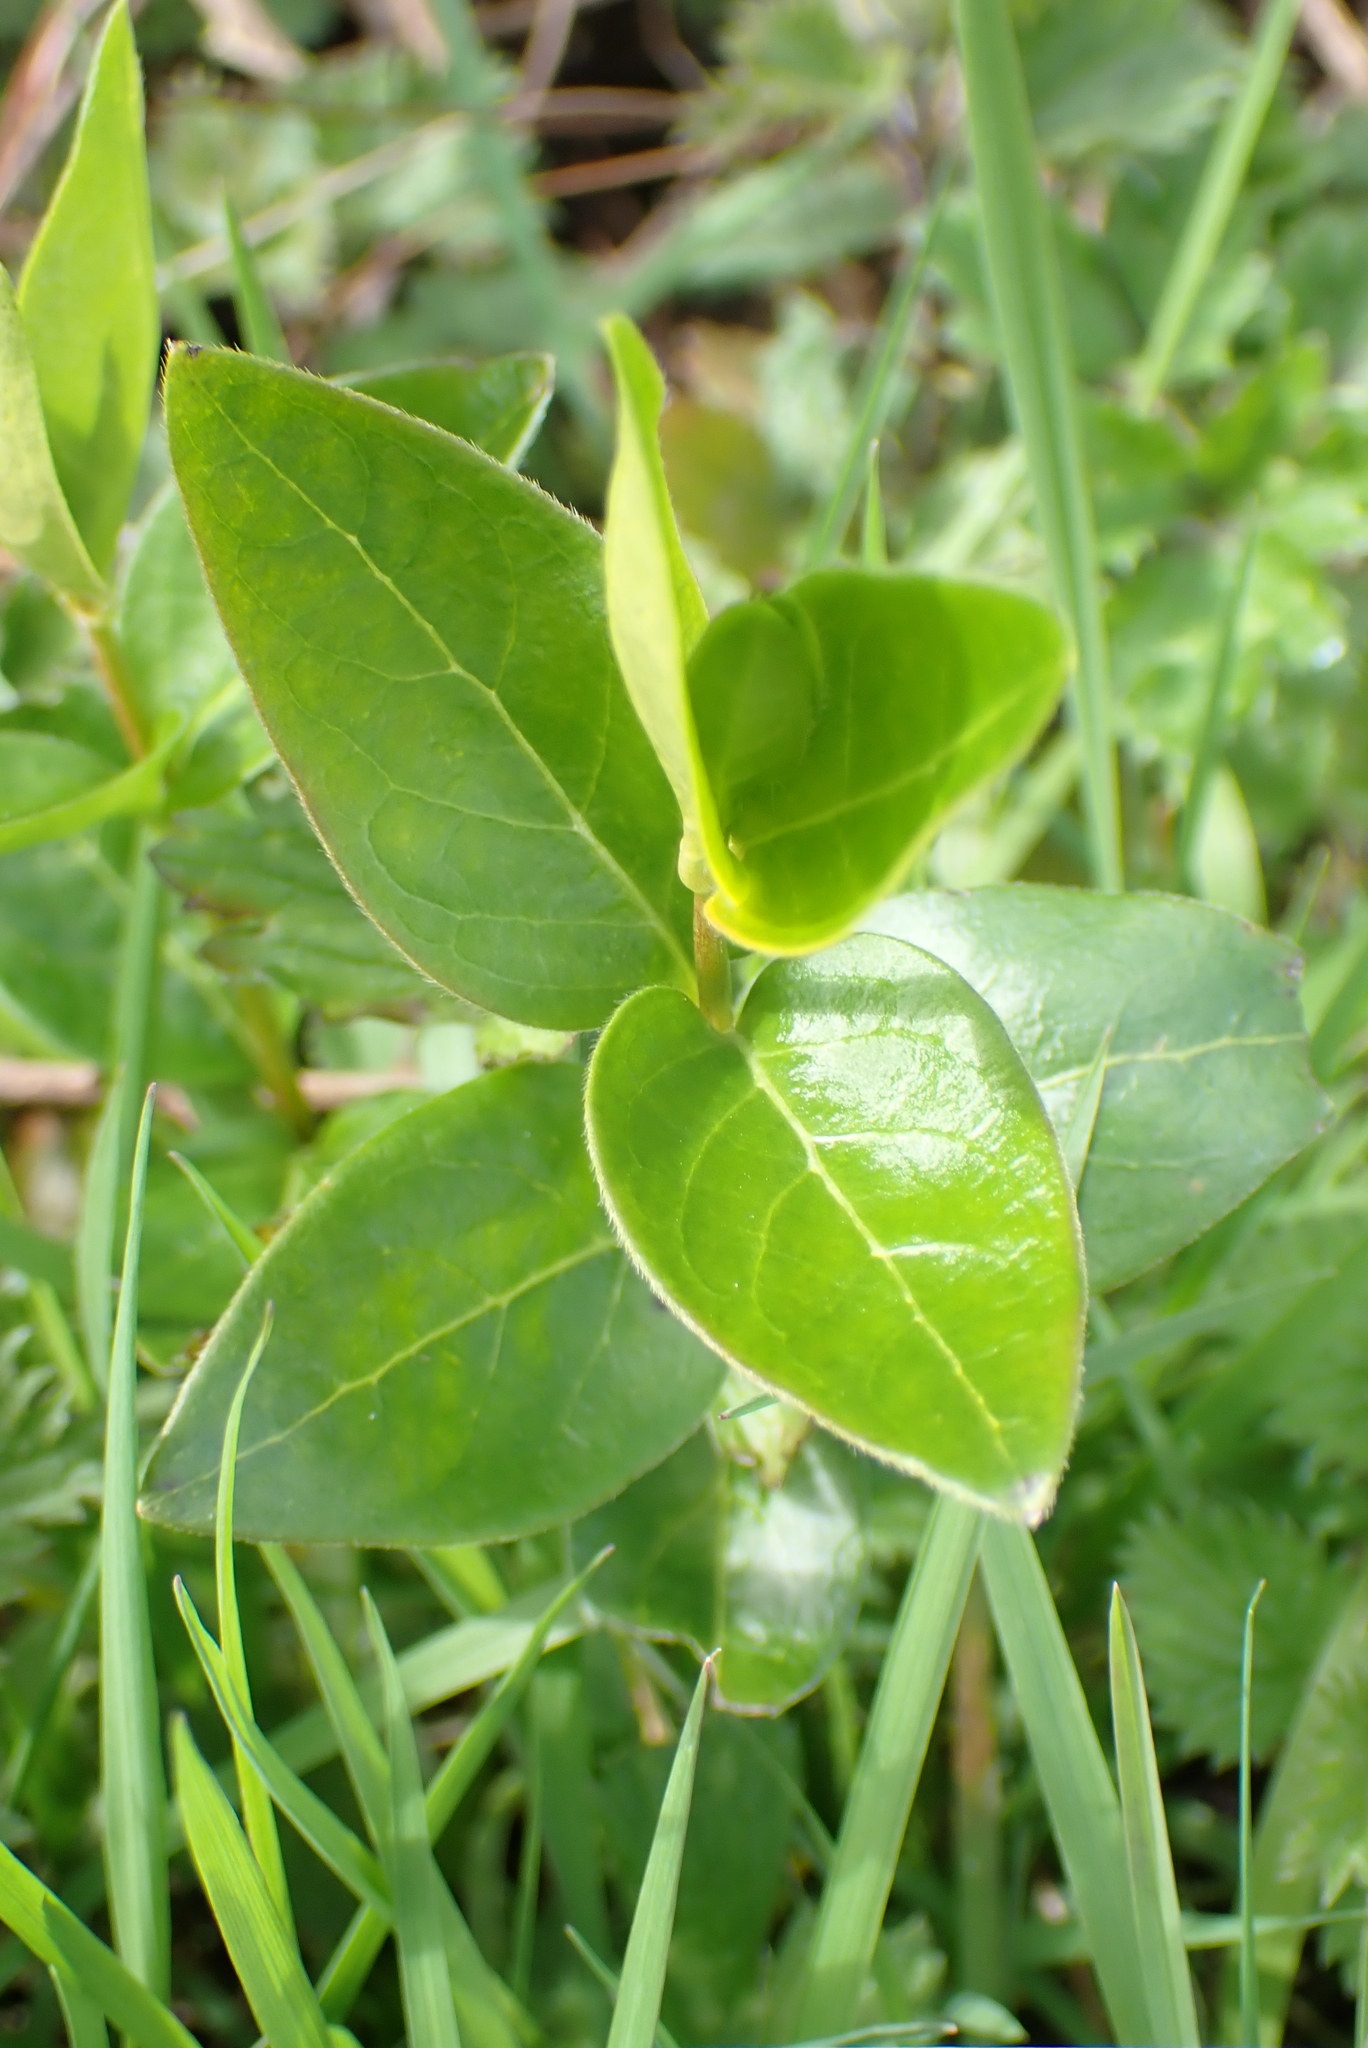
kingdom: Plantae
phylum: Tracheophyta
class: Magnoliopsida
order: Gentianales
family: Apocynaceae
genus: Vinca
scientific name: Vinca major
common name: Greater periwinkle
